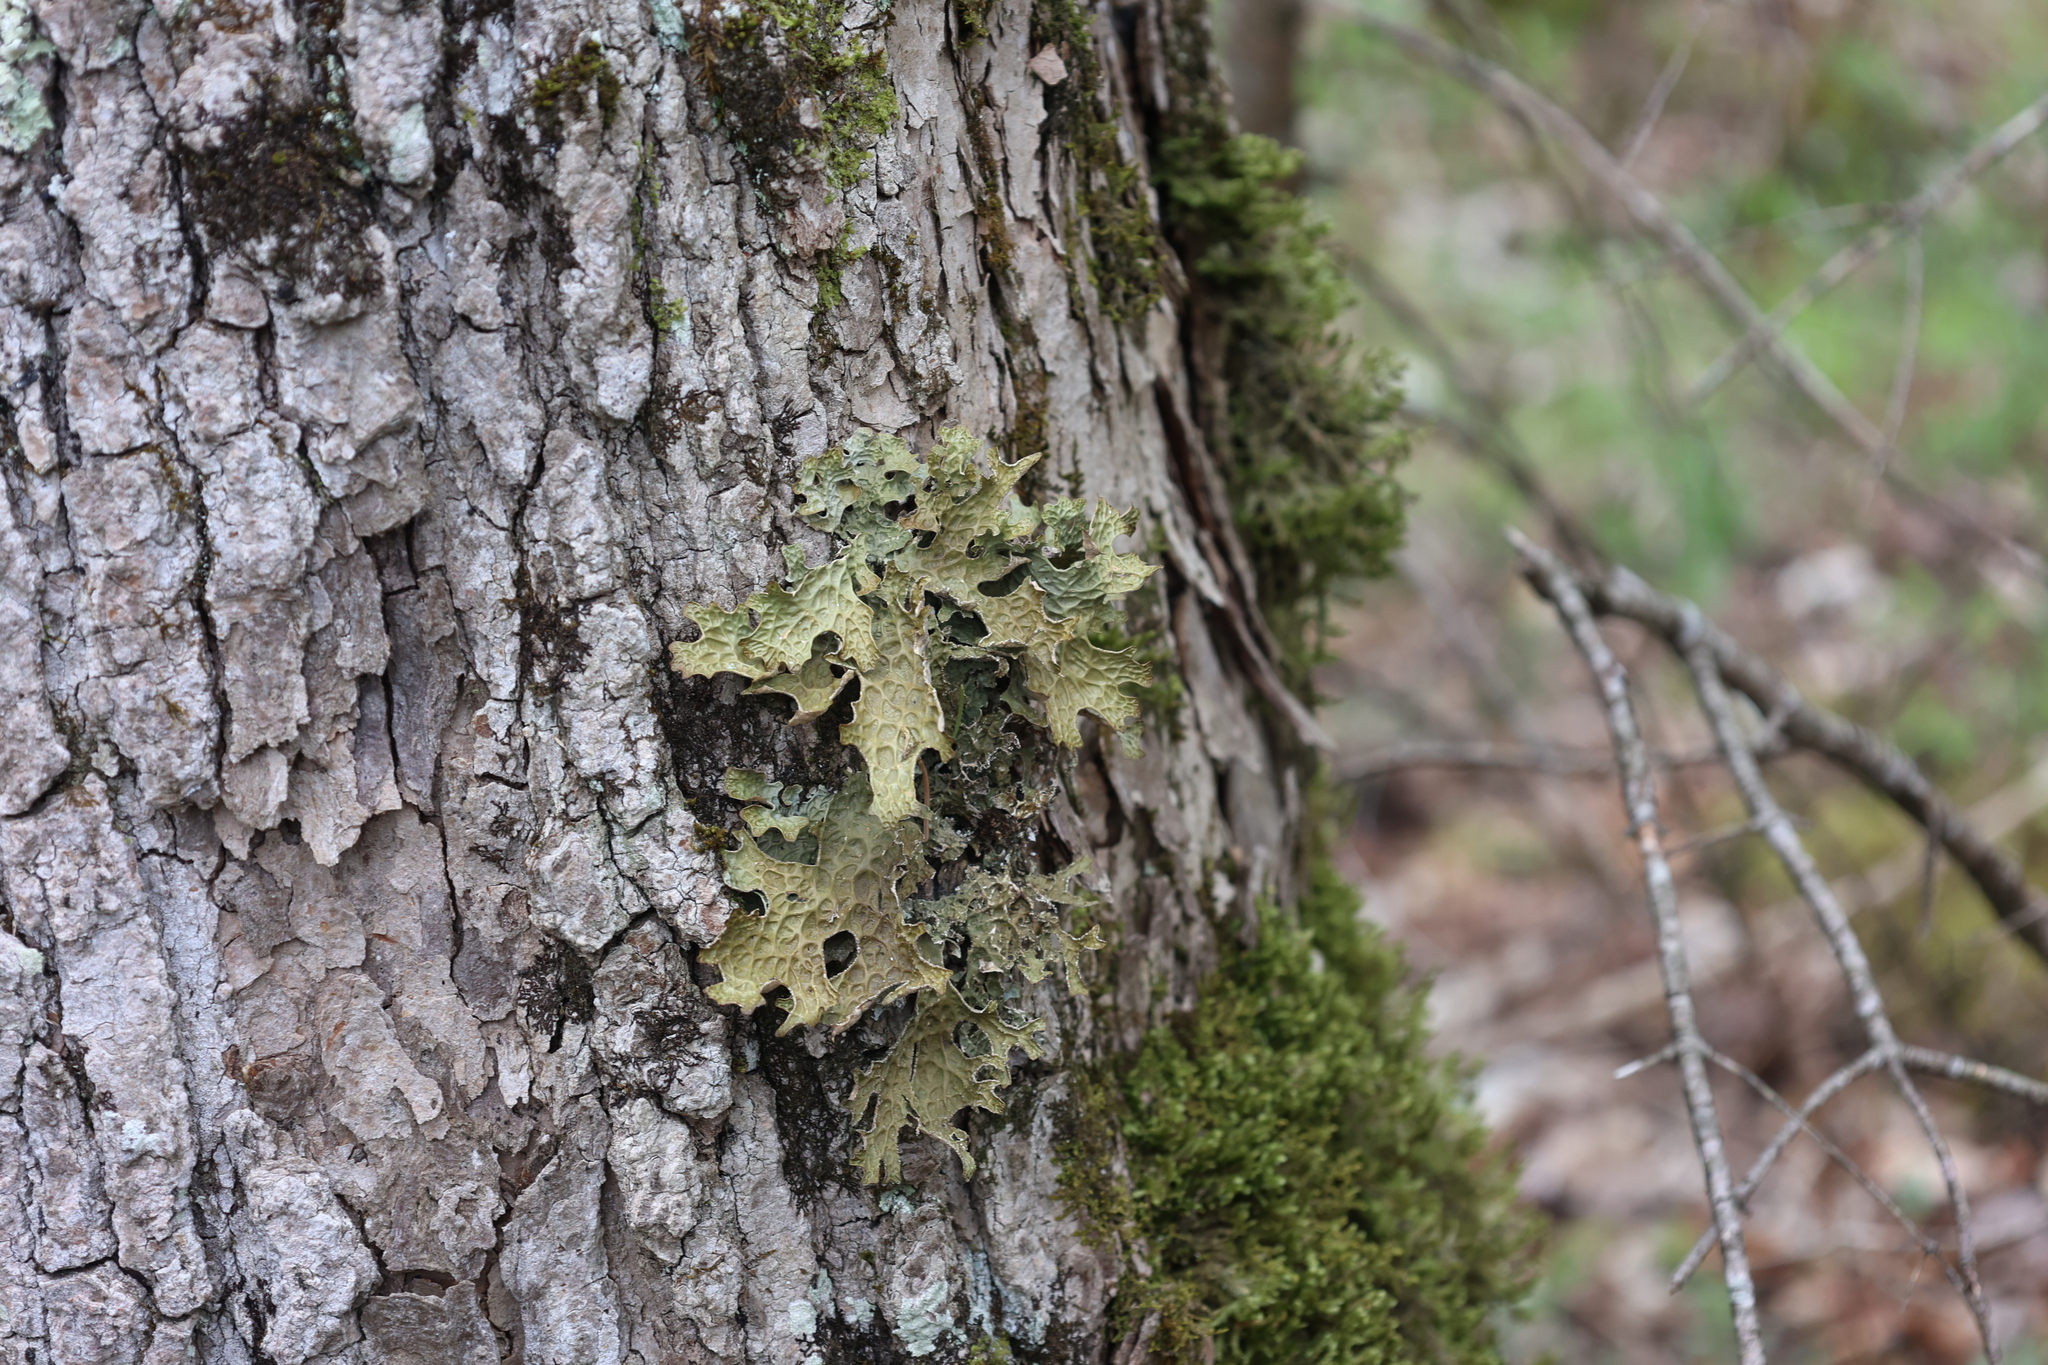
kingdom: Fungi
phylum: Ascomycota
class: Lecanoromycetes
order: Peltigerales
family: Lobariaceae
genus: Lobaria
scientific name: Lobaria pulmonaria
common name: Lungwort
